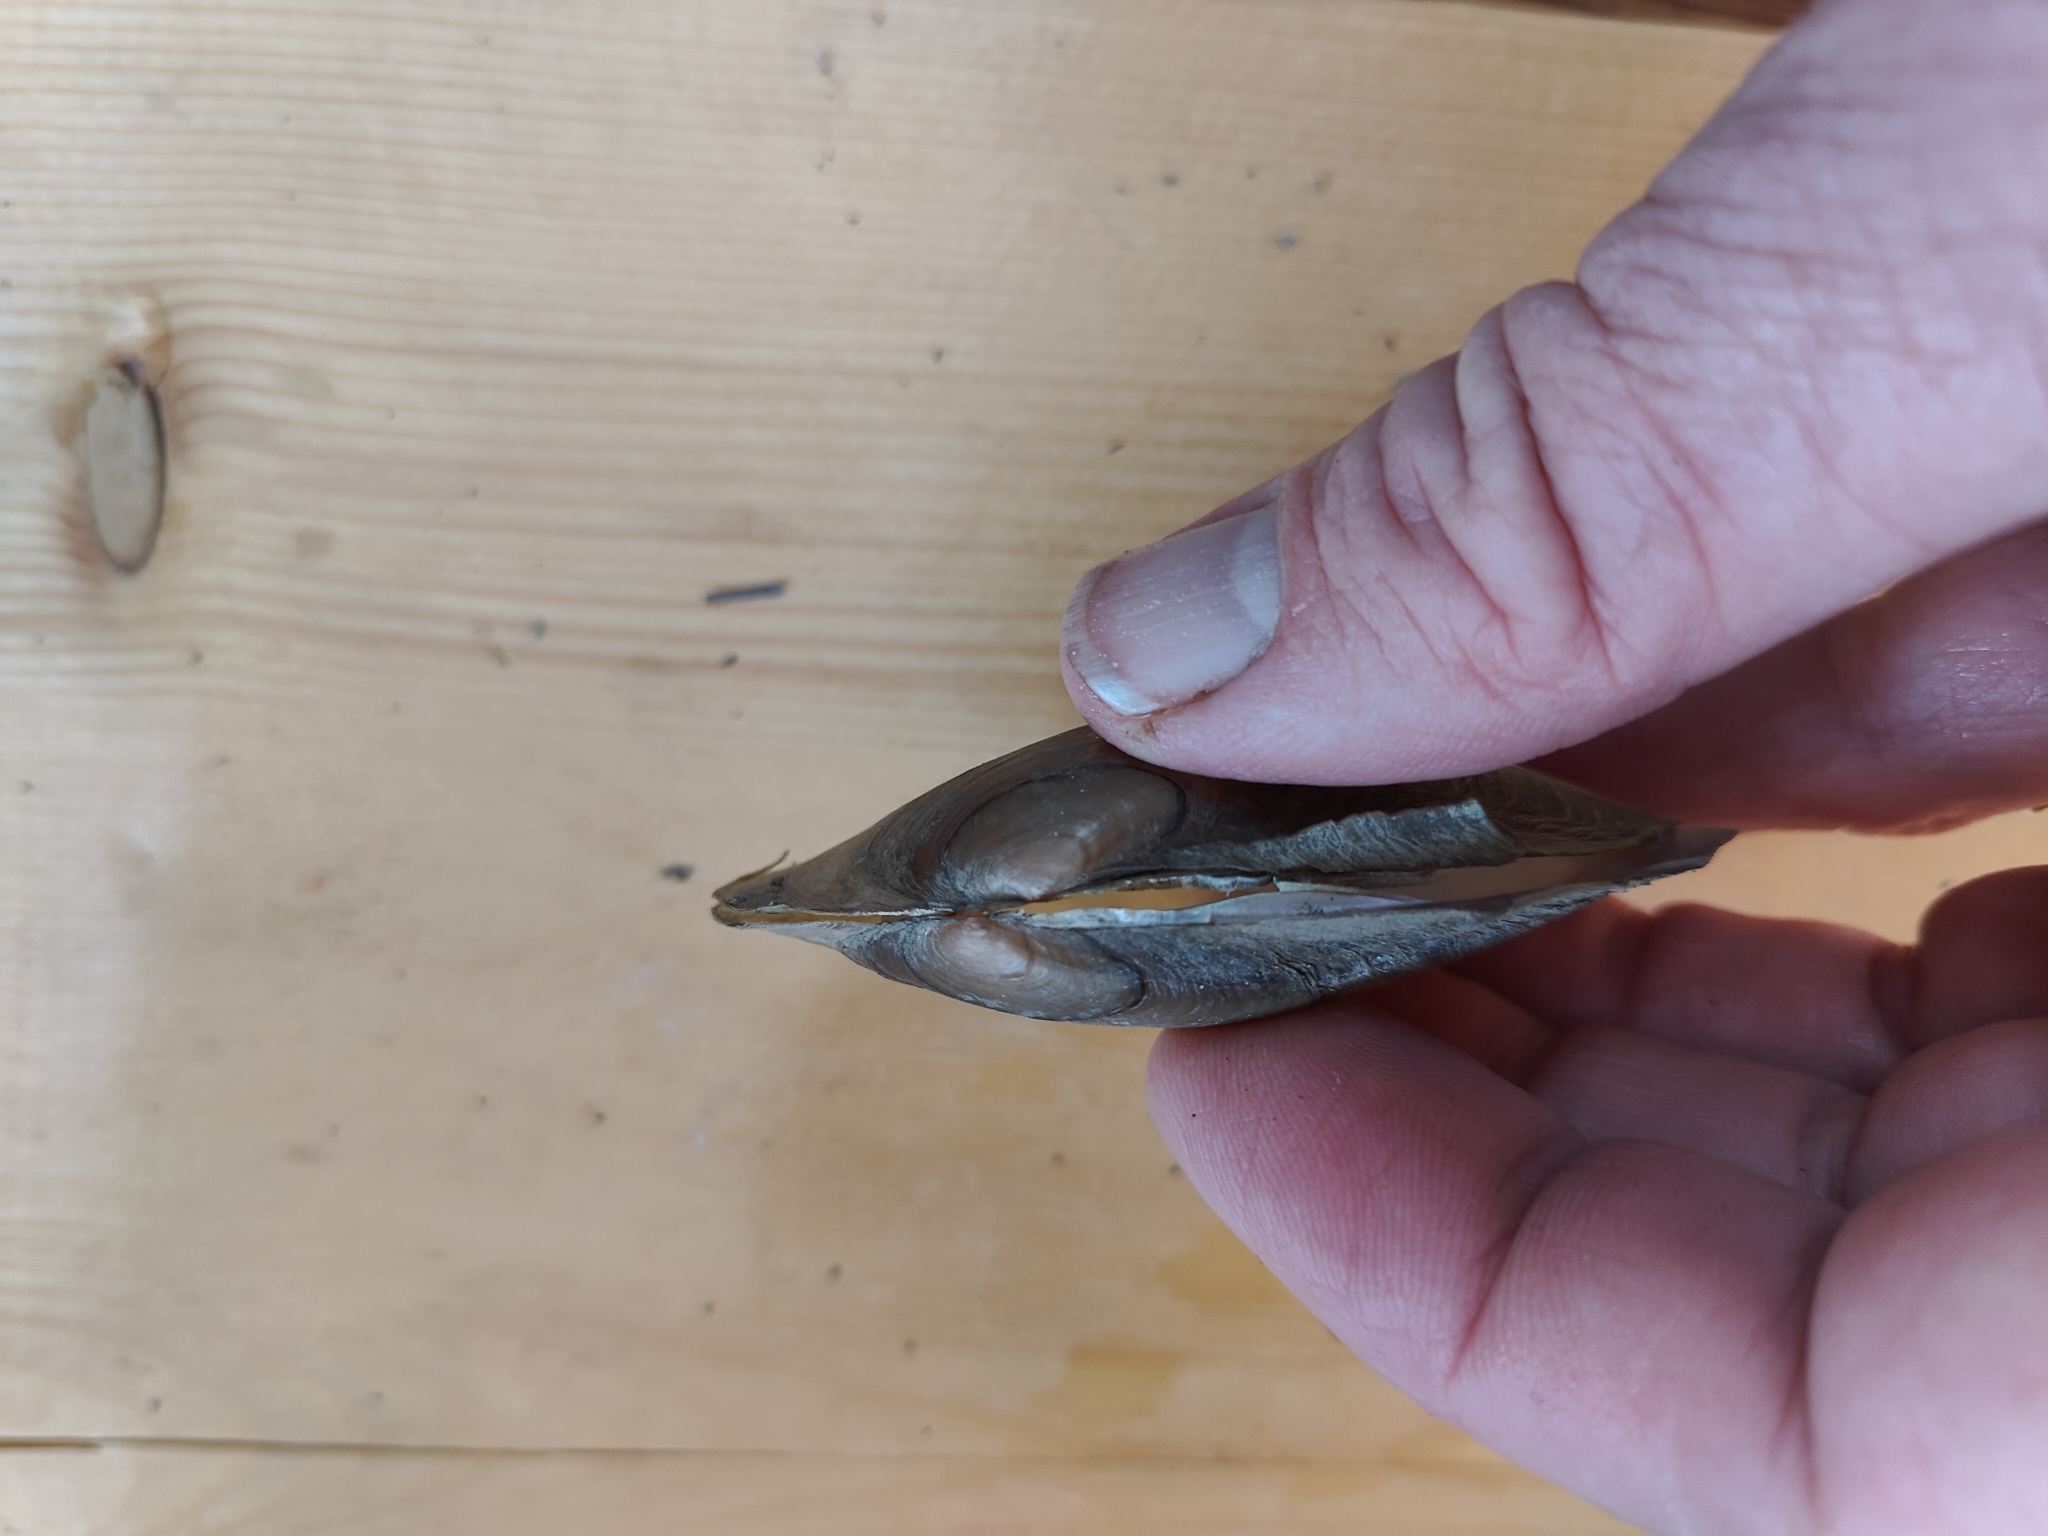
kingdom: Animalia
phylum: Mollusca
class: Bivalvia
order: Unionida
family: Unionidae
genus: Potamilus
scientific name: Potamilus fragilis
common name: Fragile papershell
